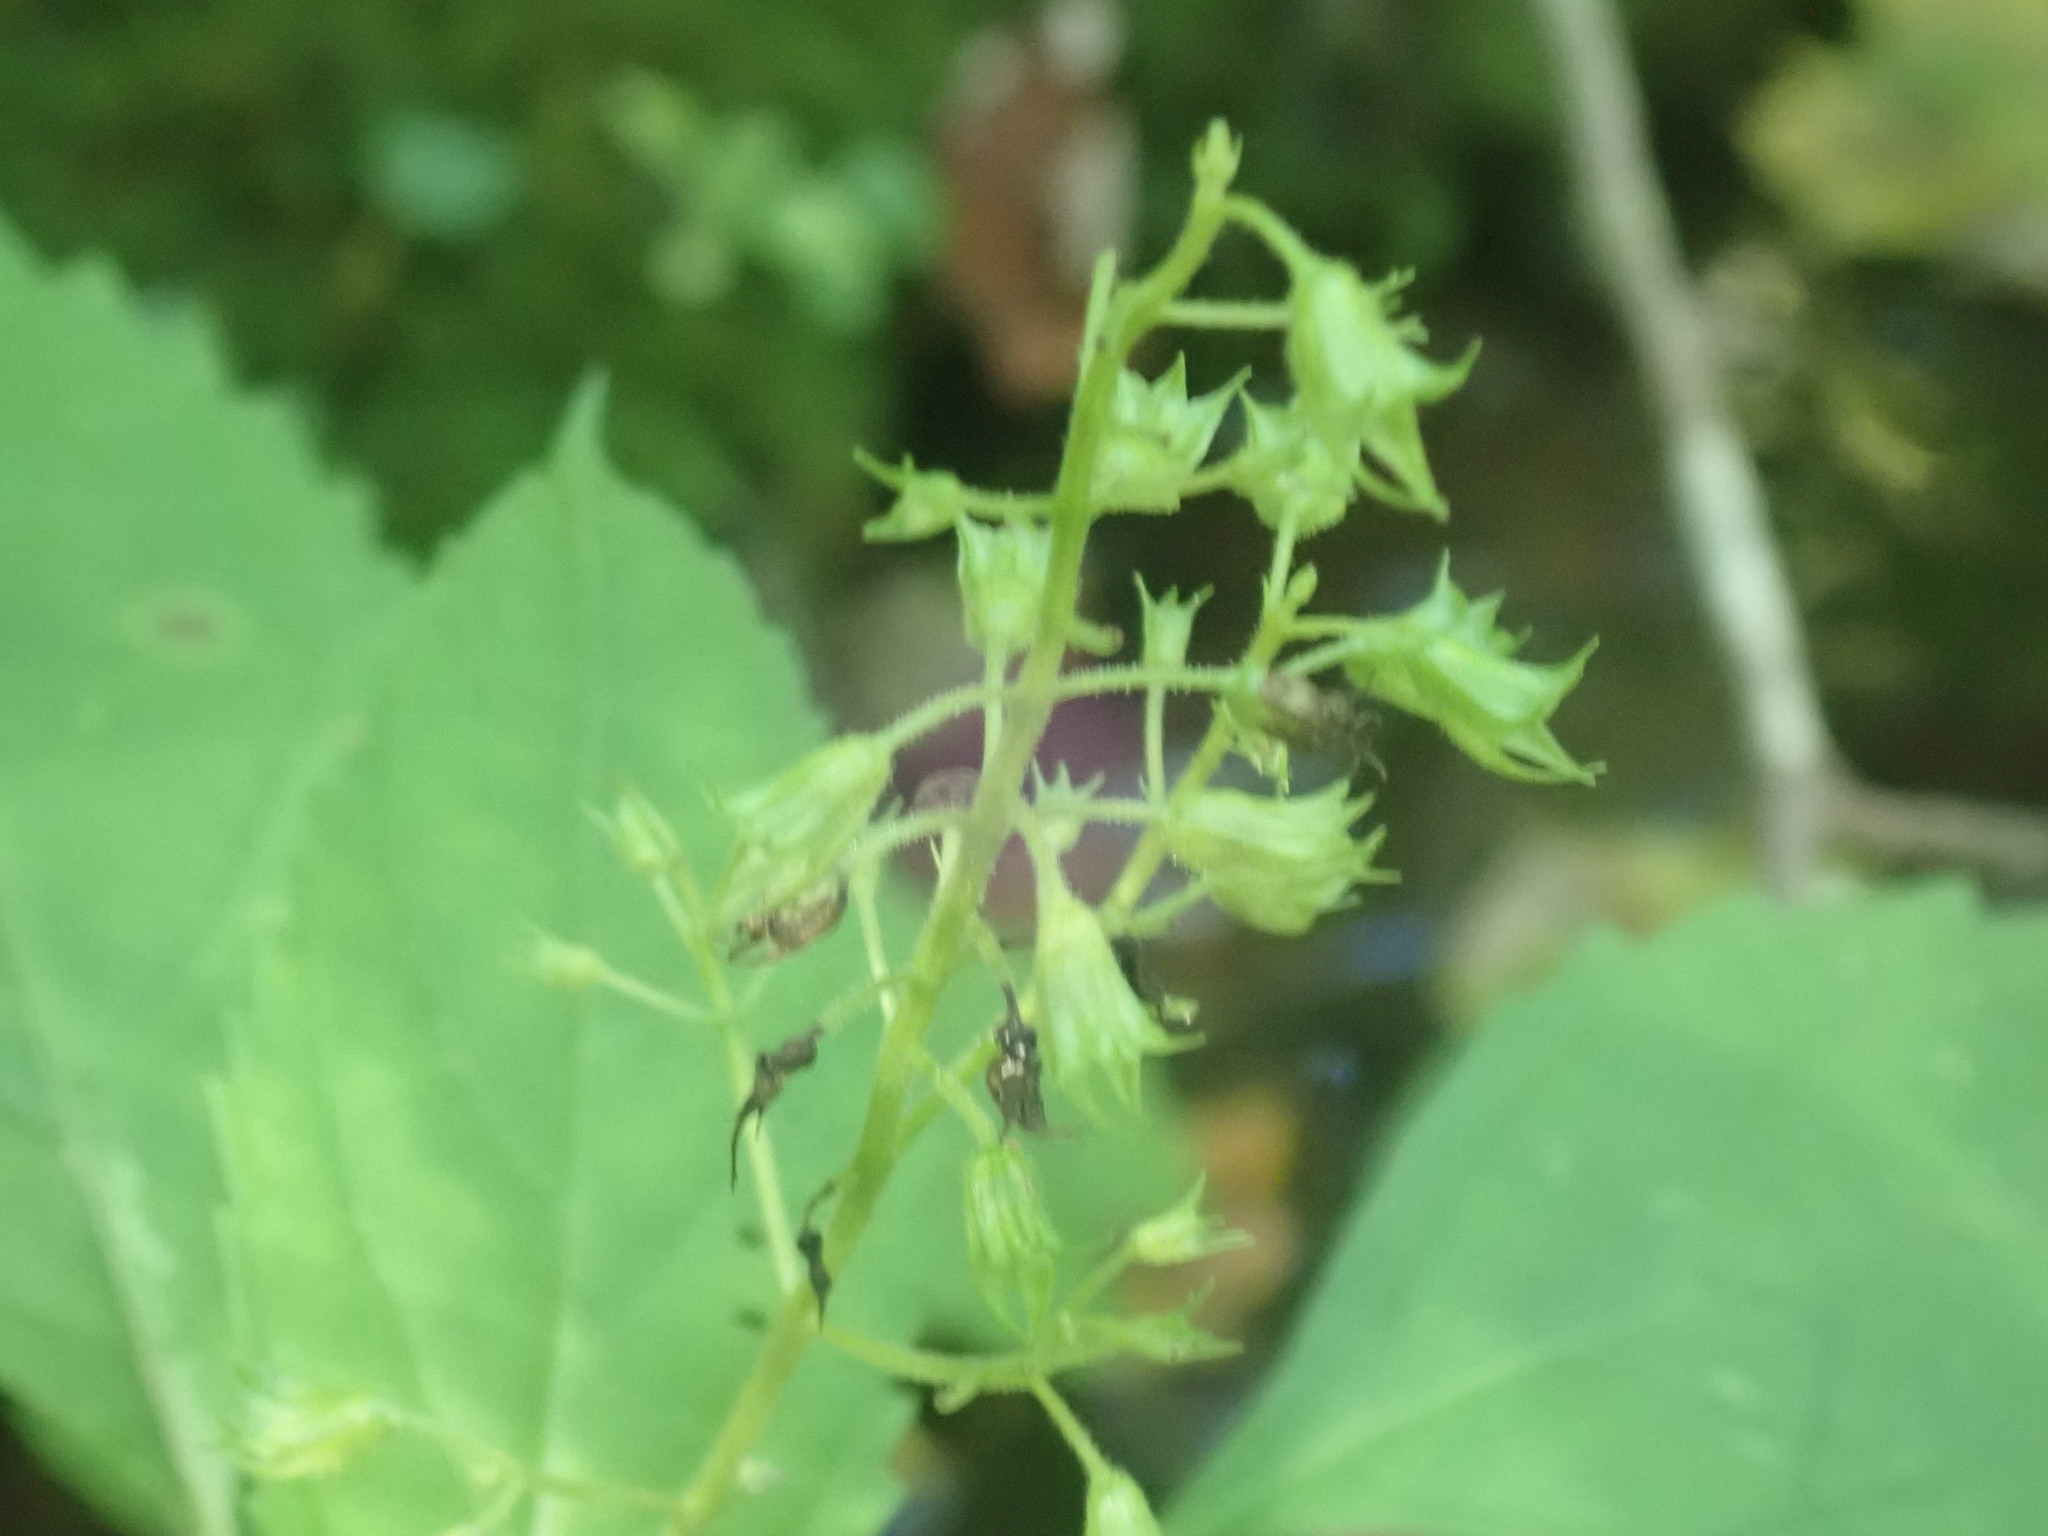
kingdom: Plantae
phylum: Tracheophyta
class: Magnoliopsida
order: Lamiales
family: Lamiaceae
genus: Collinsonia
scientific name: Collinsonia canadensis
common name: Northern horsebalm
